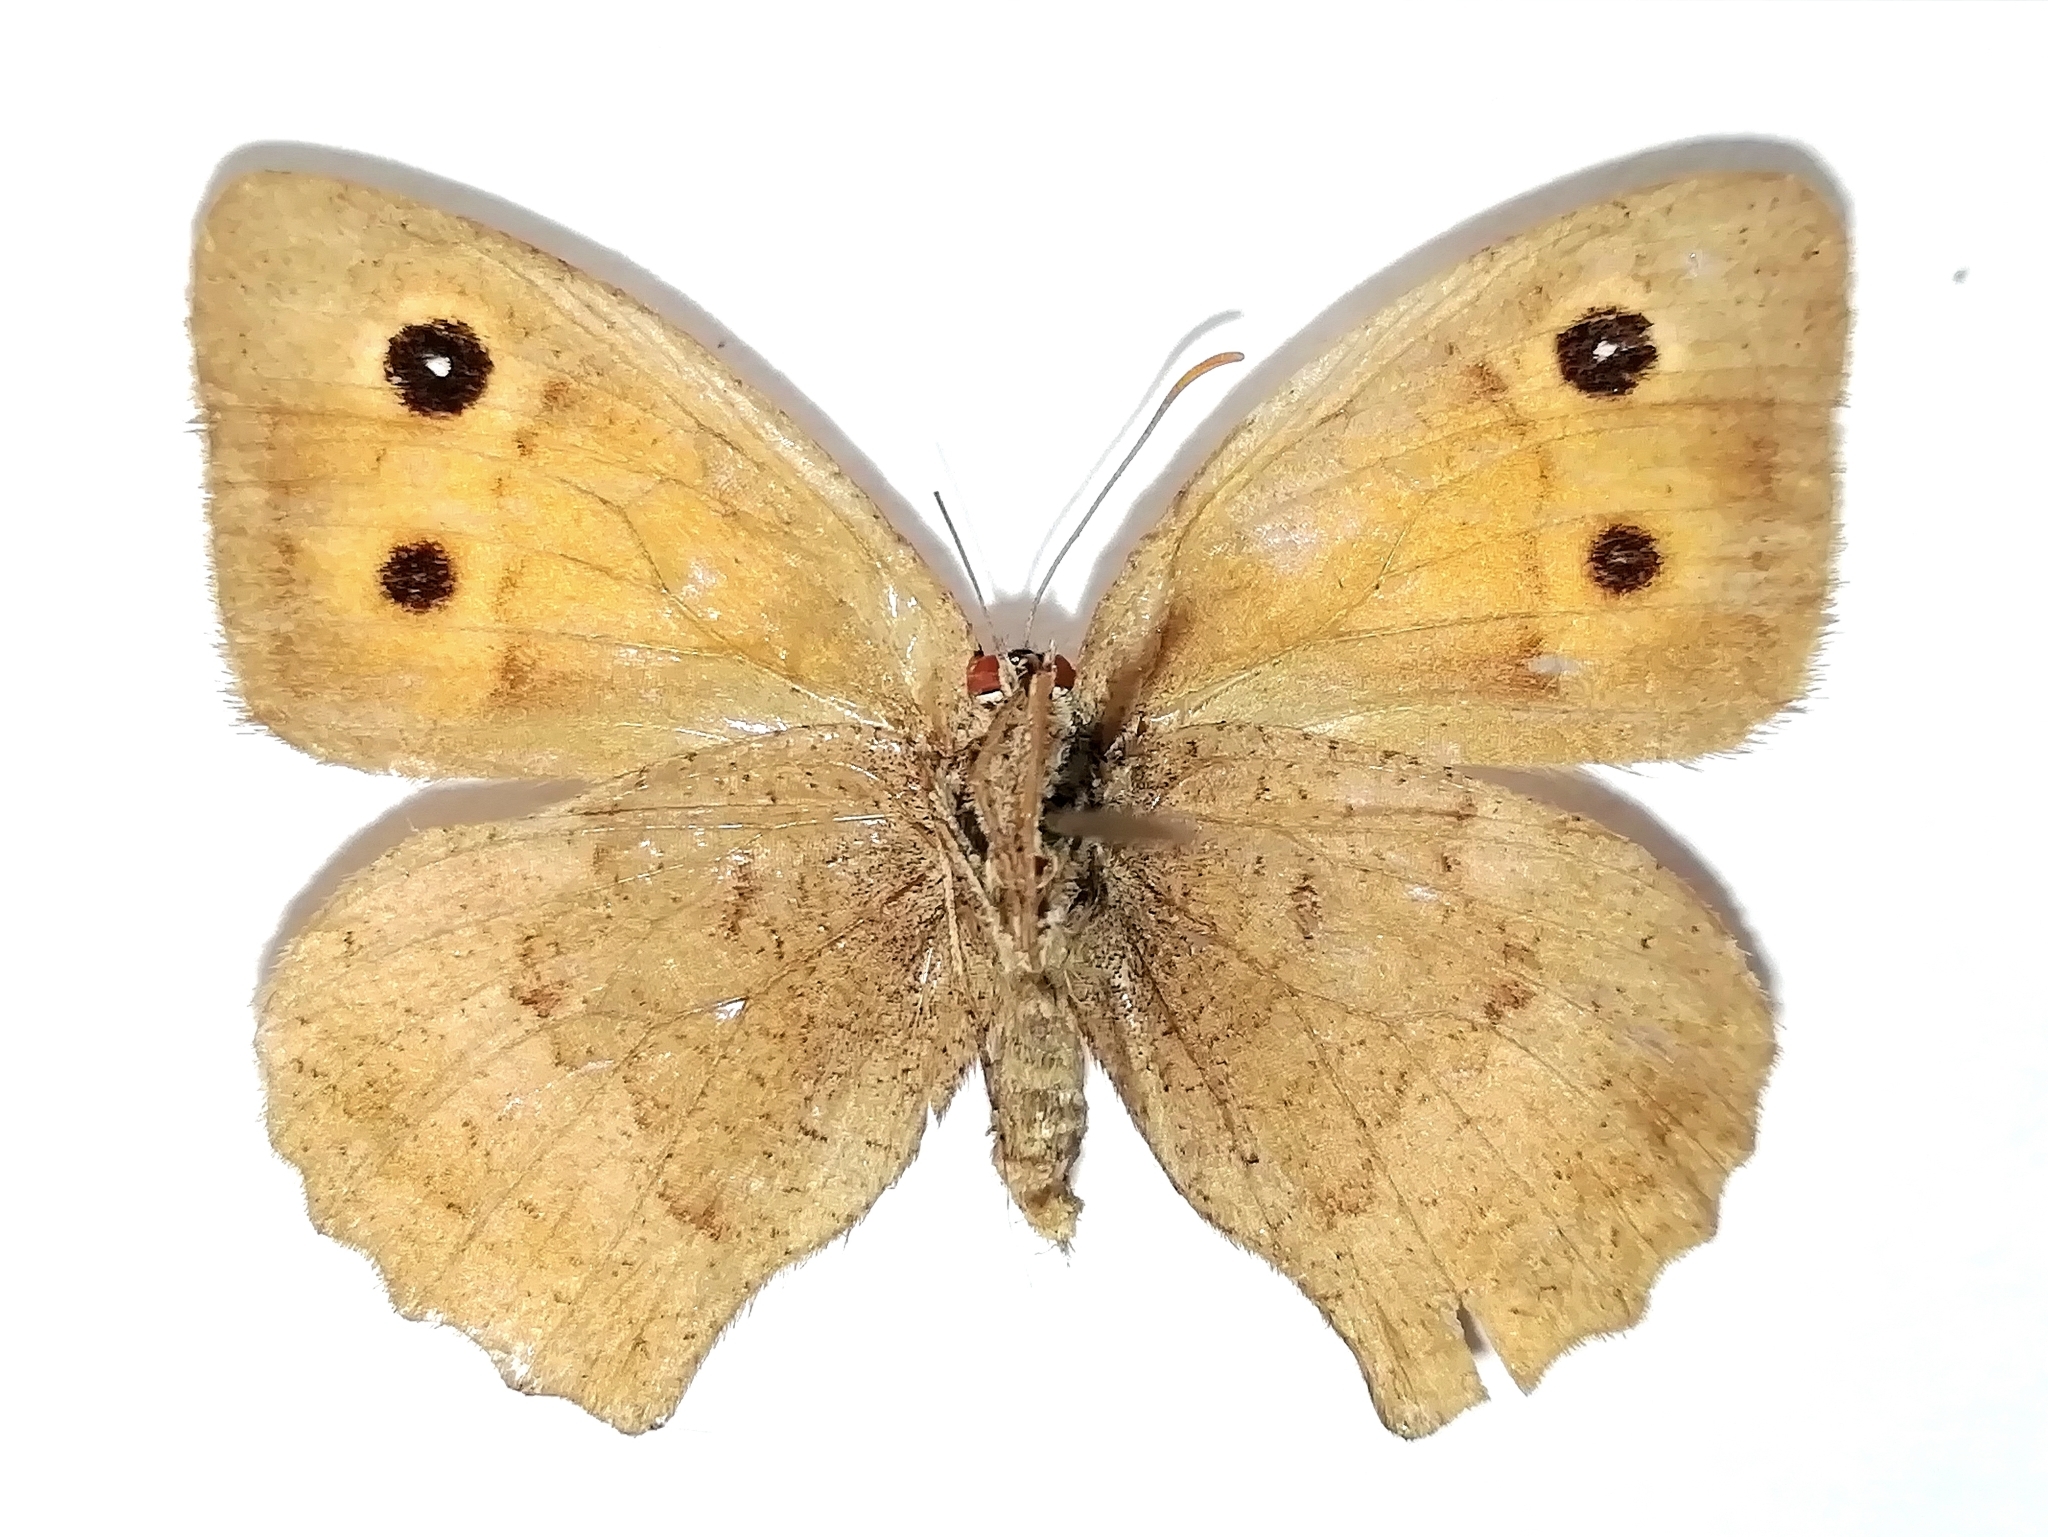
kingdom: Animalia
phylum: Arthropoda
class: Insecta
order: Lepidoptera
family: Nymphalidae
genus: Hyponephele
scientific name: Hyponephele lycaon
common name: Dusky meadow brown
